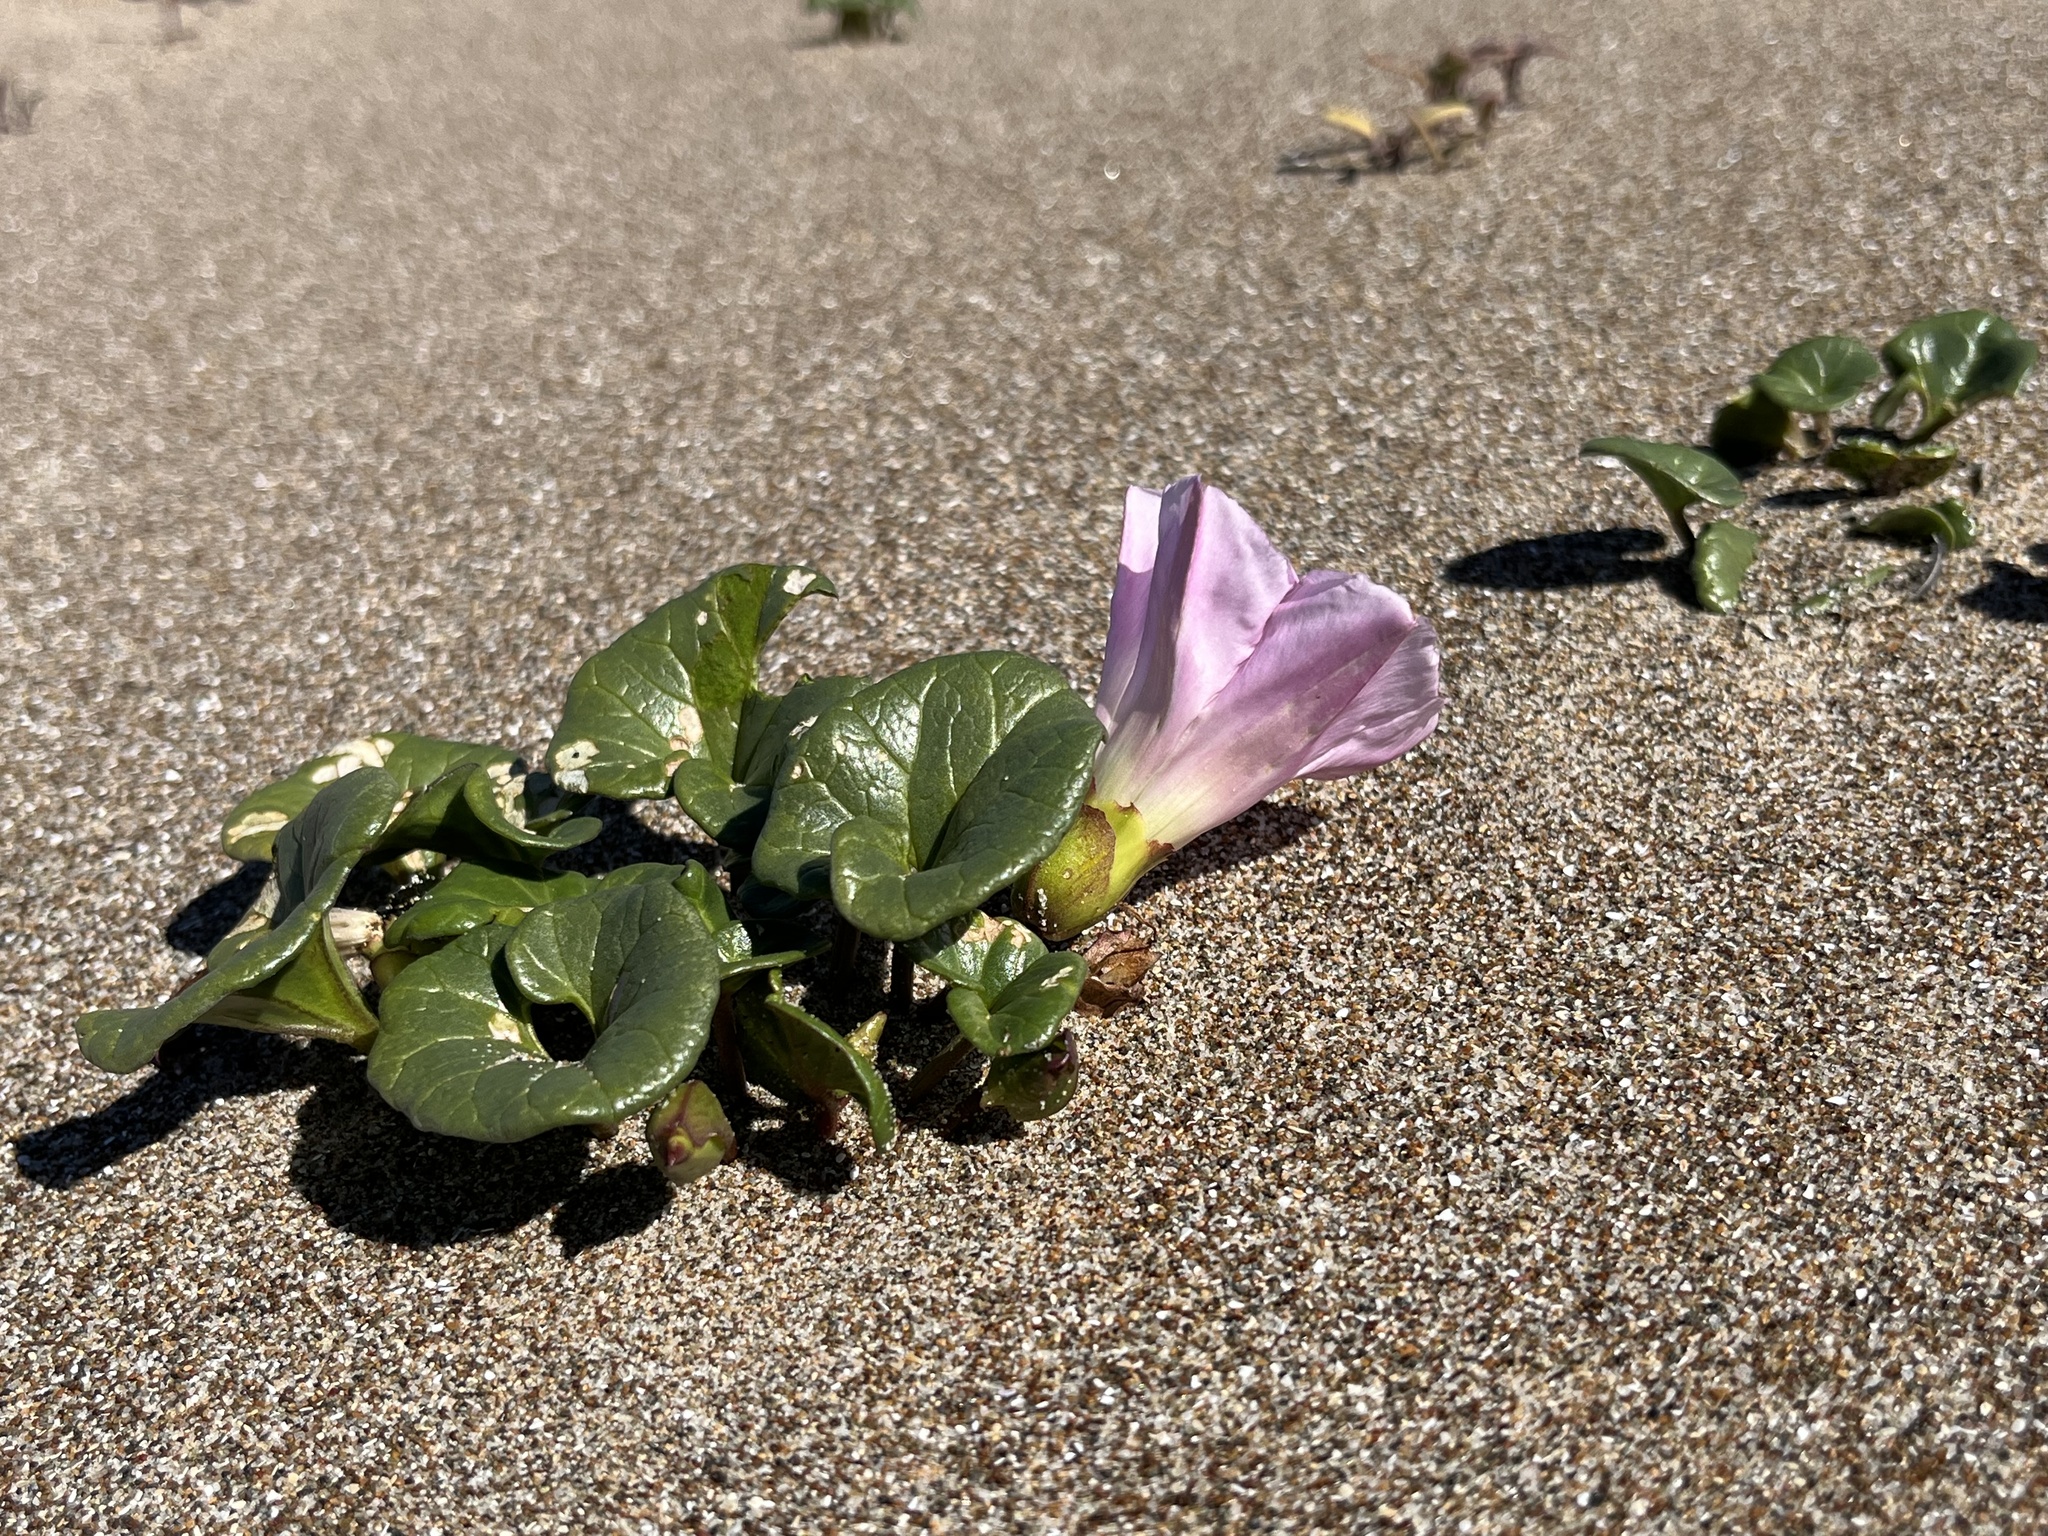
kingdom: Plantae
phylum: Tracheophyta
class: Magnoliopsida
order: Solanales
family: Convolvulaceae
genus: Calystegia
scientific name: Calystegia soldanella
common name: Sea bindweed
